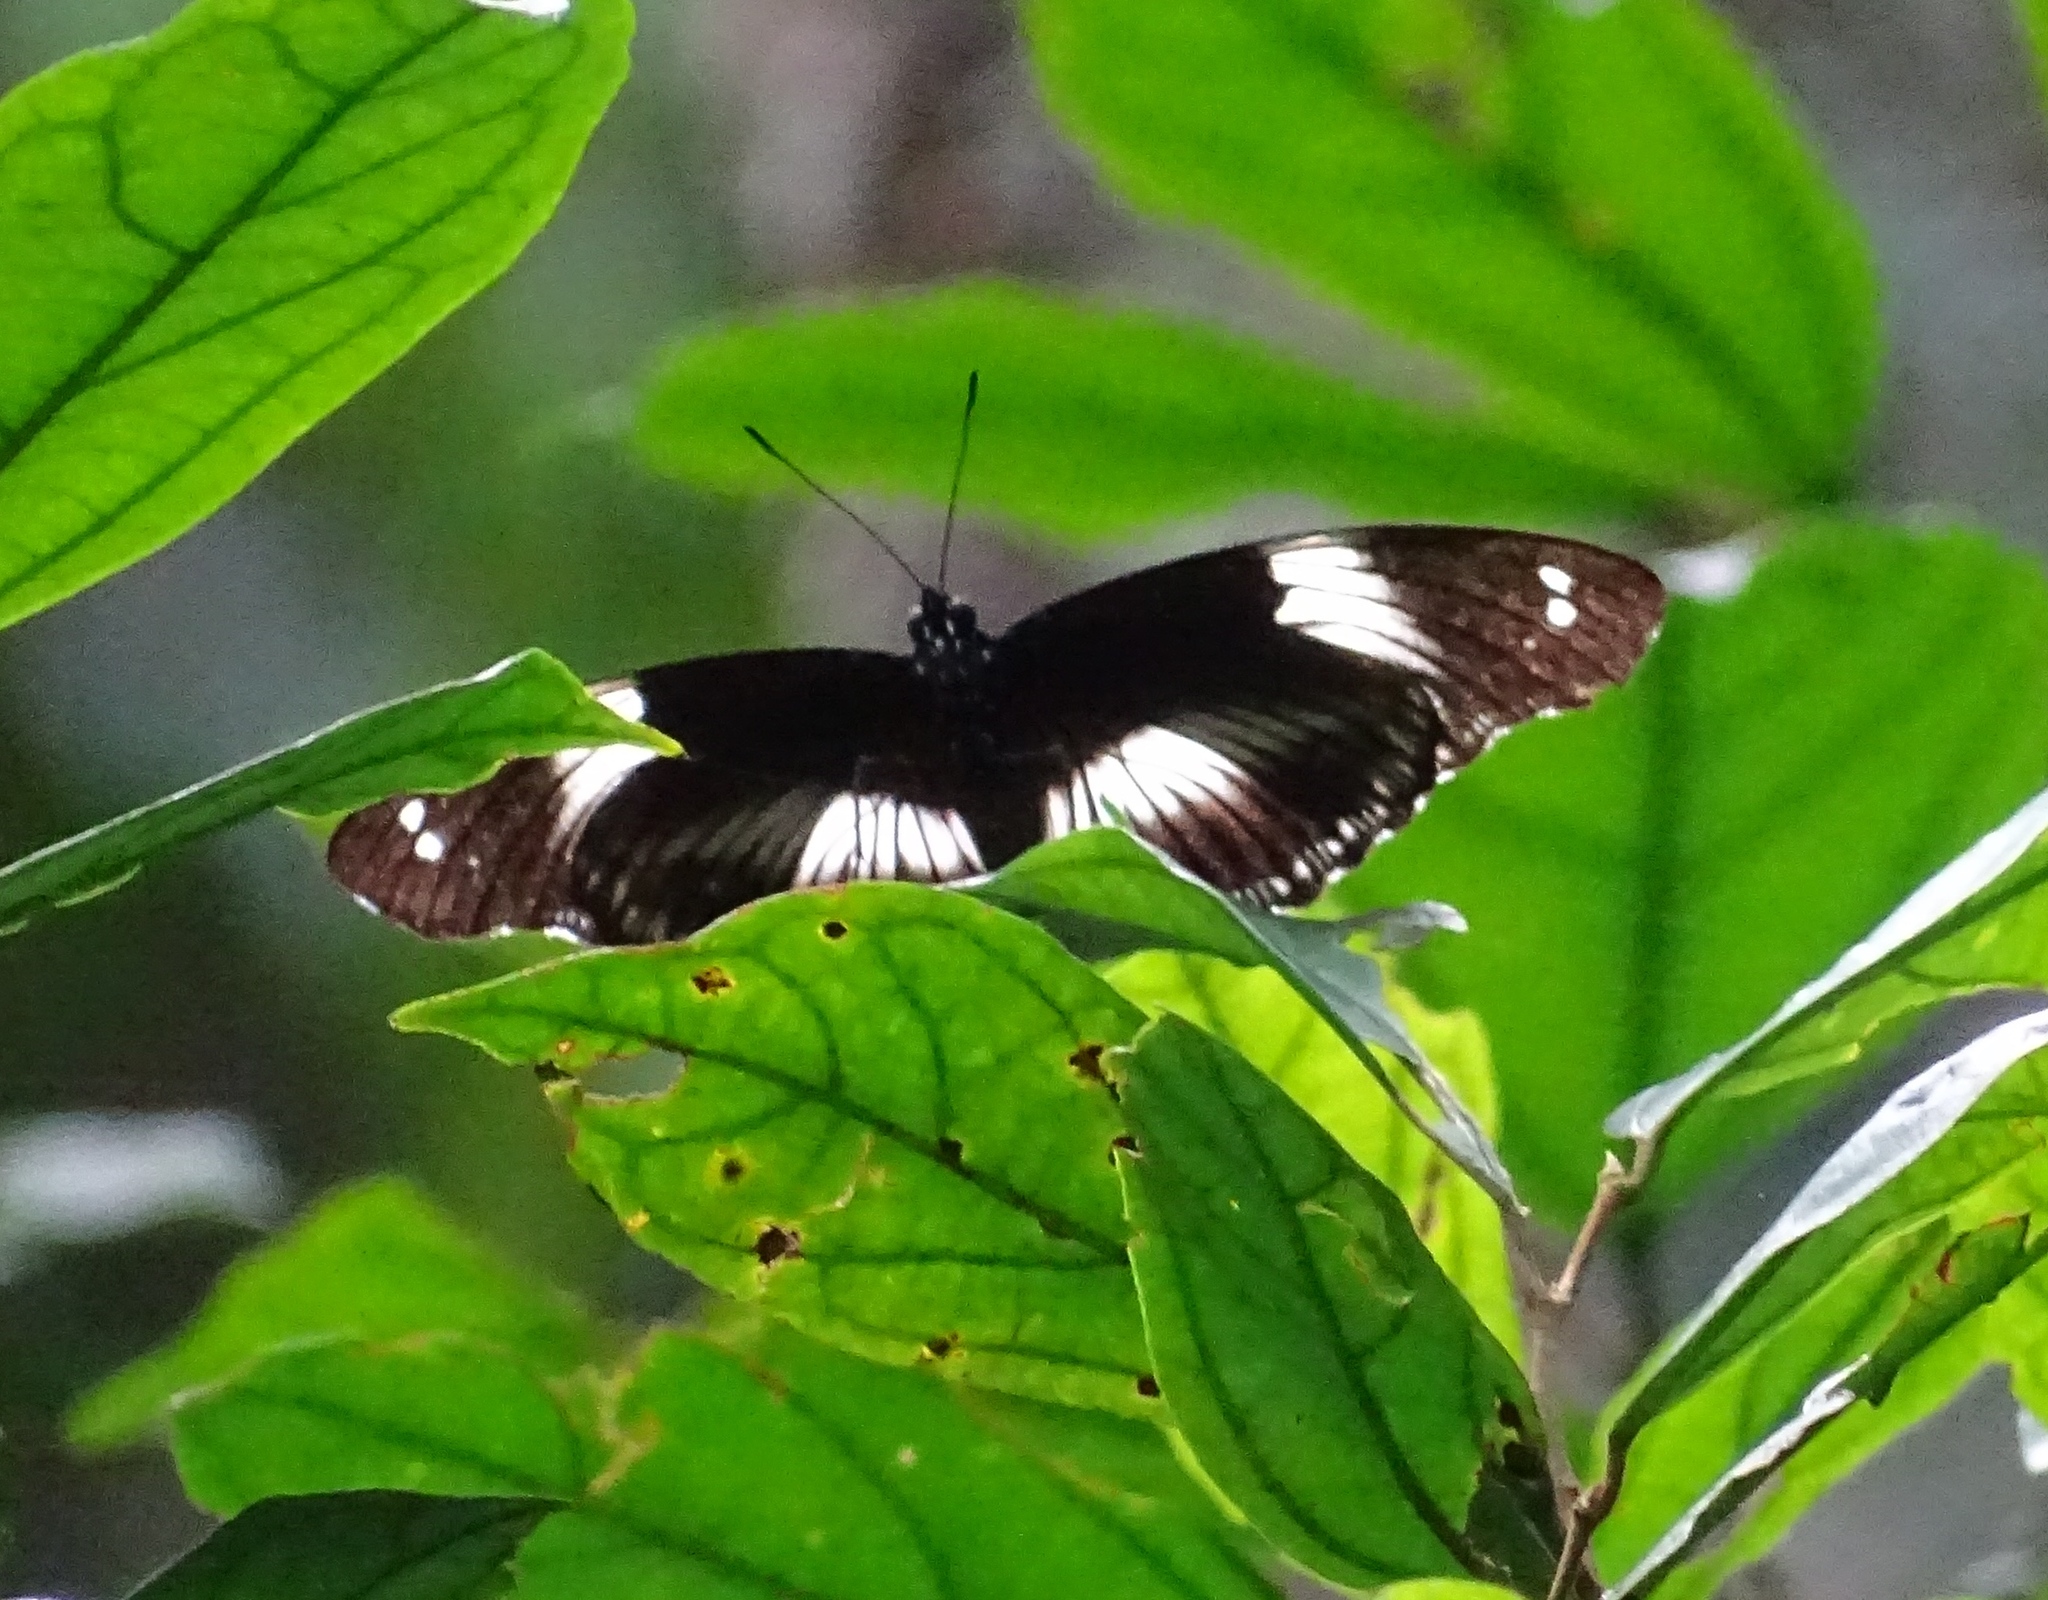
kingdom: Animalia
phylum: Arthropoda
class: Insecta
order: Lepidoptera
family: Nymphalidae
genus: Hypolimnas
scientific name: Hypolimnas salmacis
